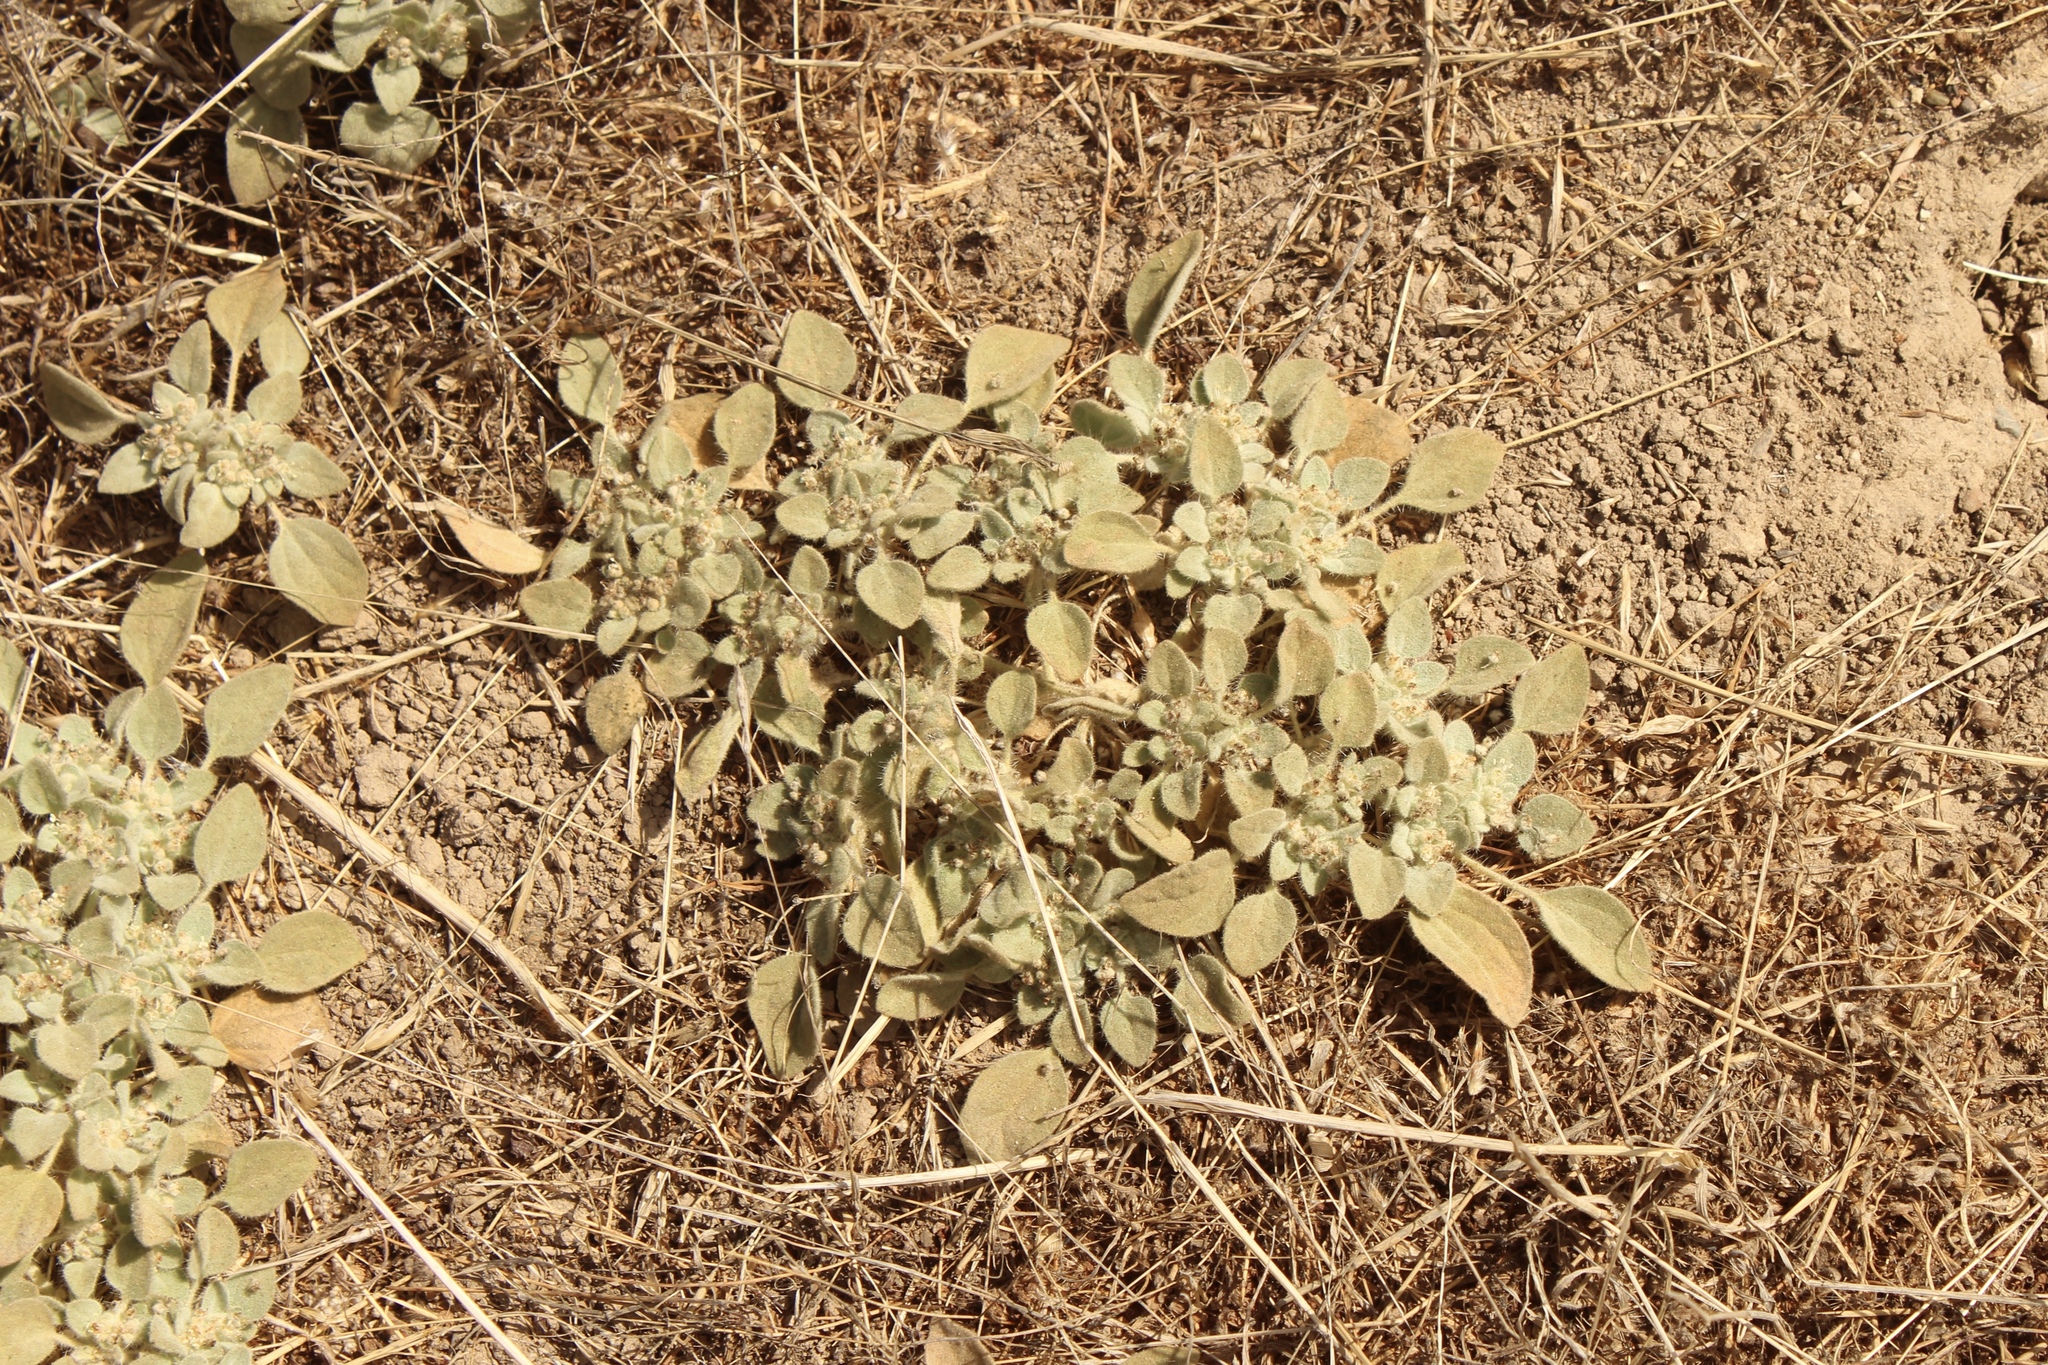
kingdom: Plantae
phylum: Tracheophyta
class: Magnoliopsida
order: Malpighiales
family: Euphorbiaceae
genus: Croton
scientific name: Croton setiger
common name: Dove weed
